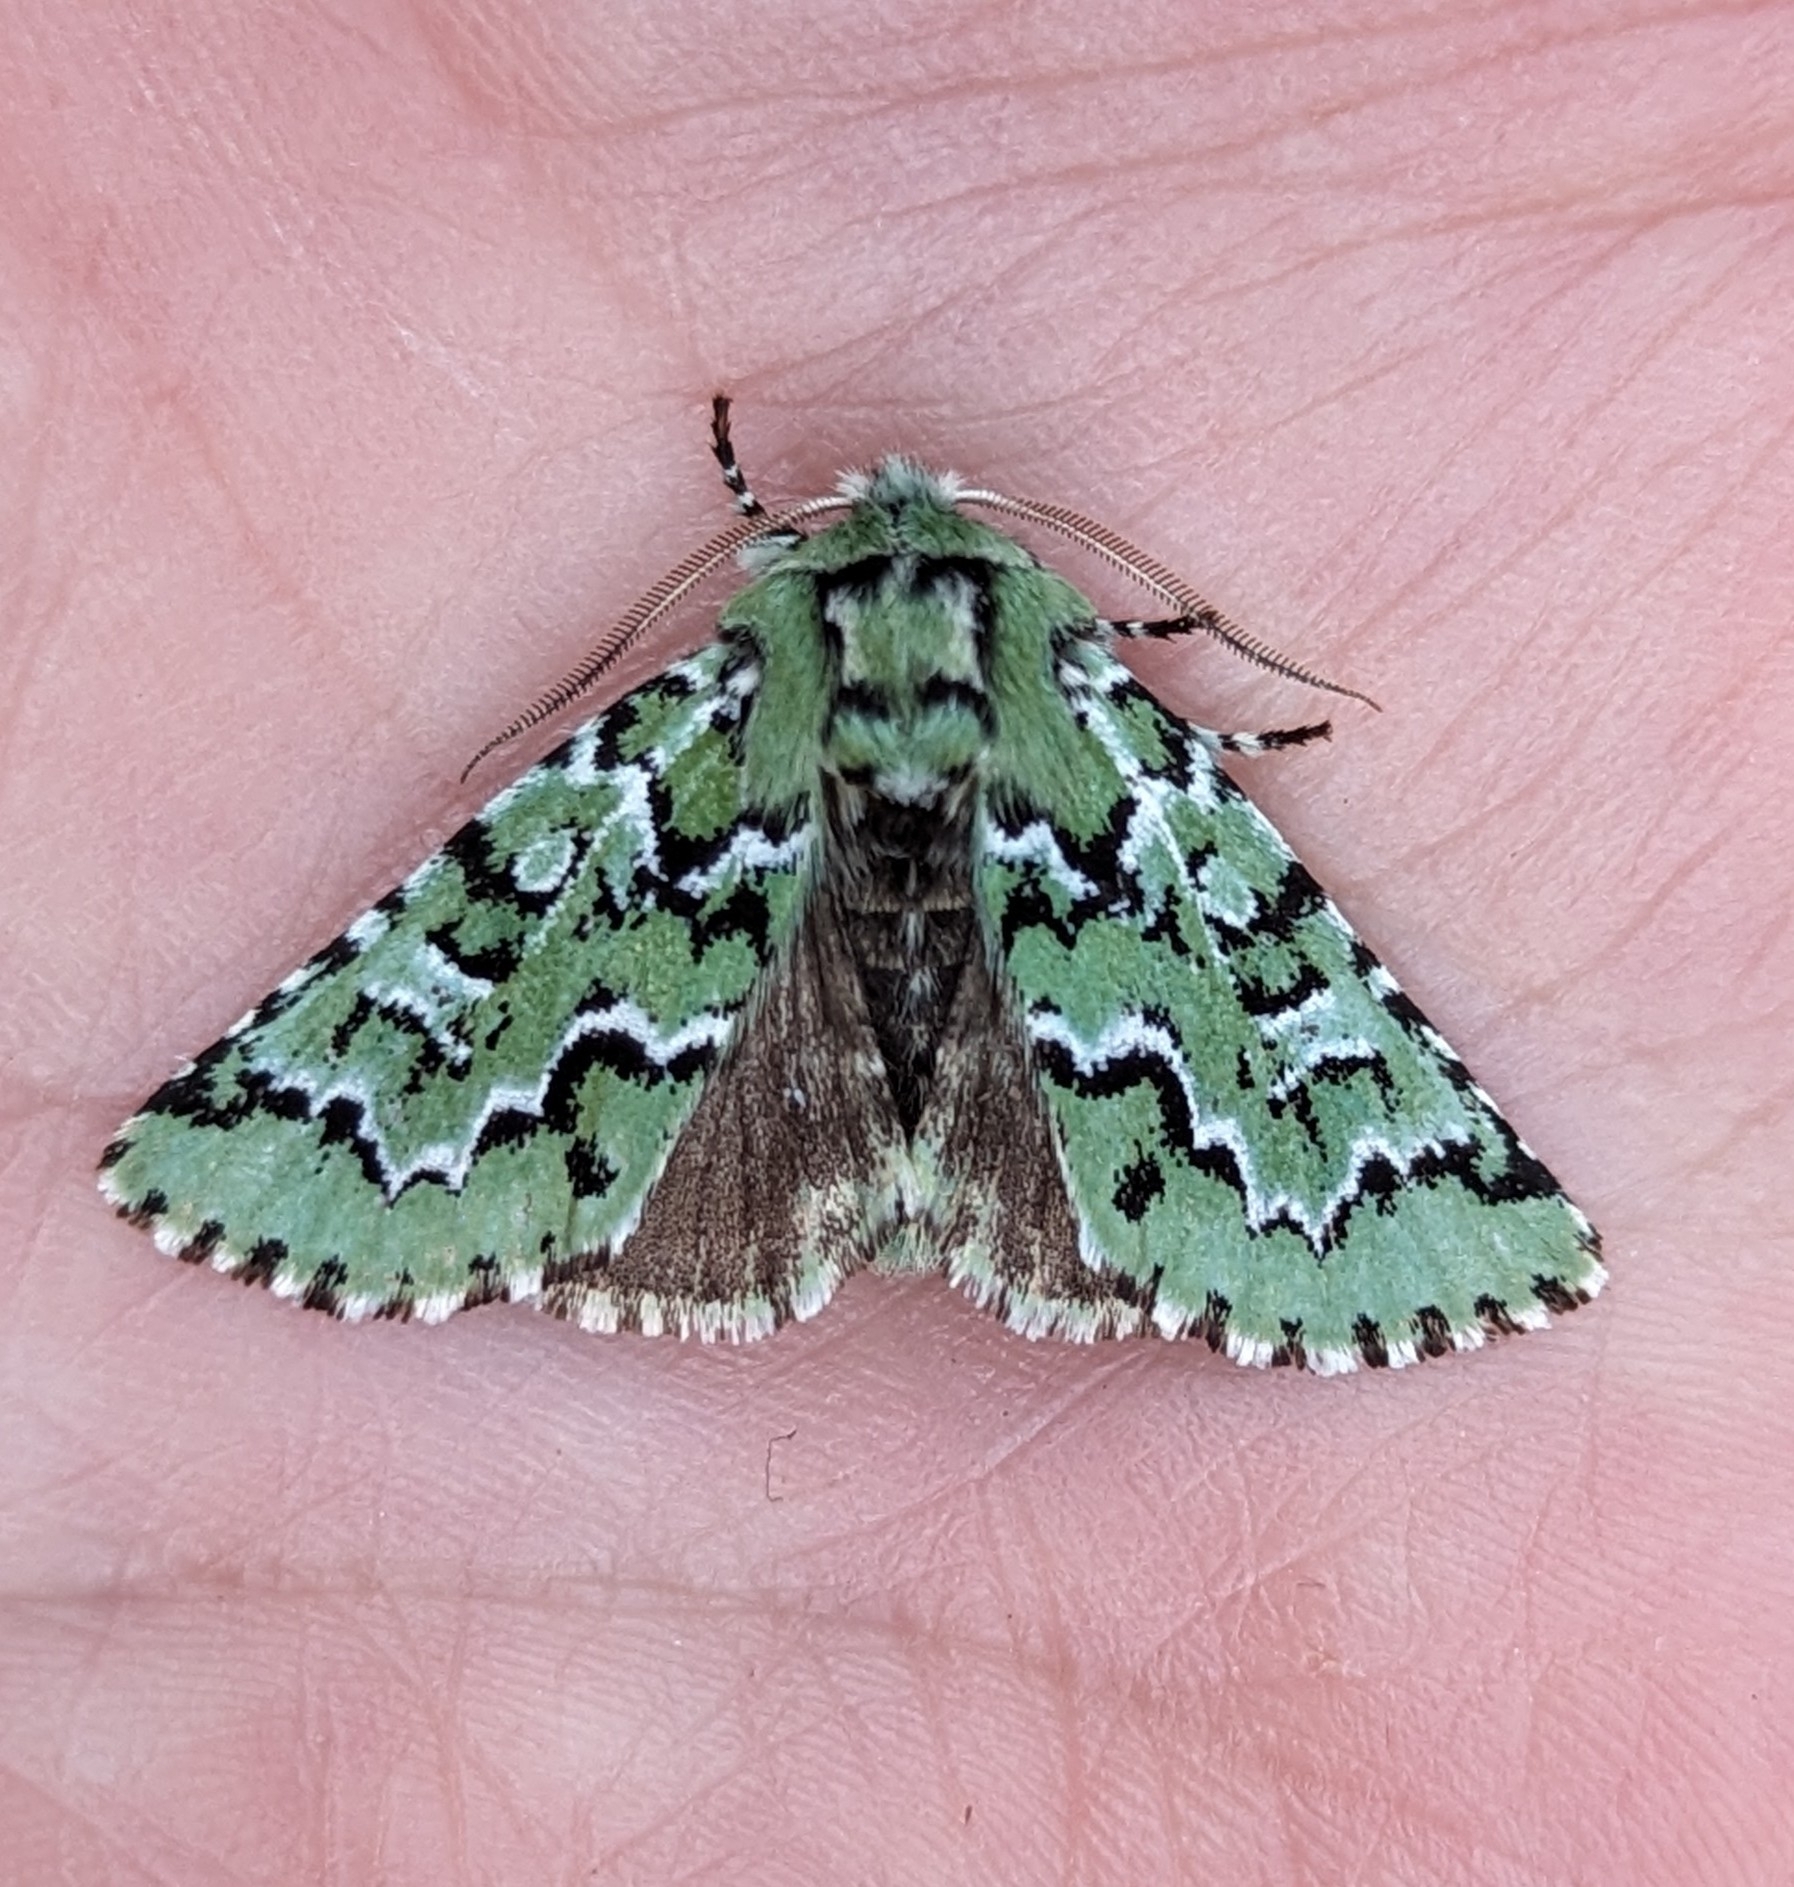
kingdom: Animalia
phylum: Arthropoda
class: Insecta
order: Lepidoptera
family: Noctuidae
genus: Feralia
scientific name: Feralia deceptiva
